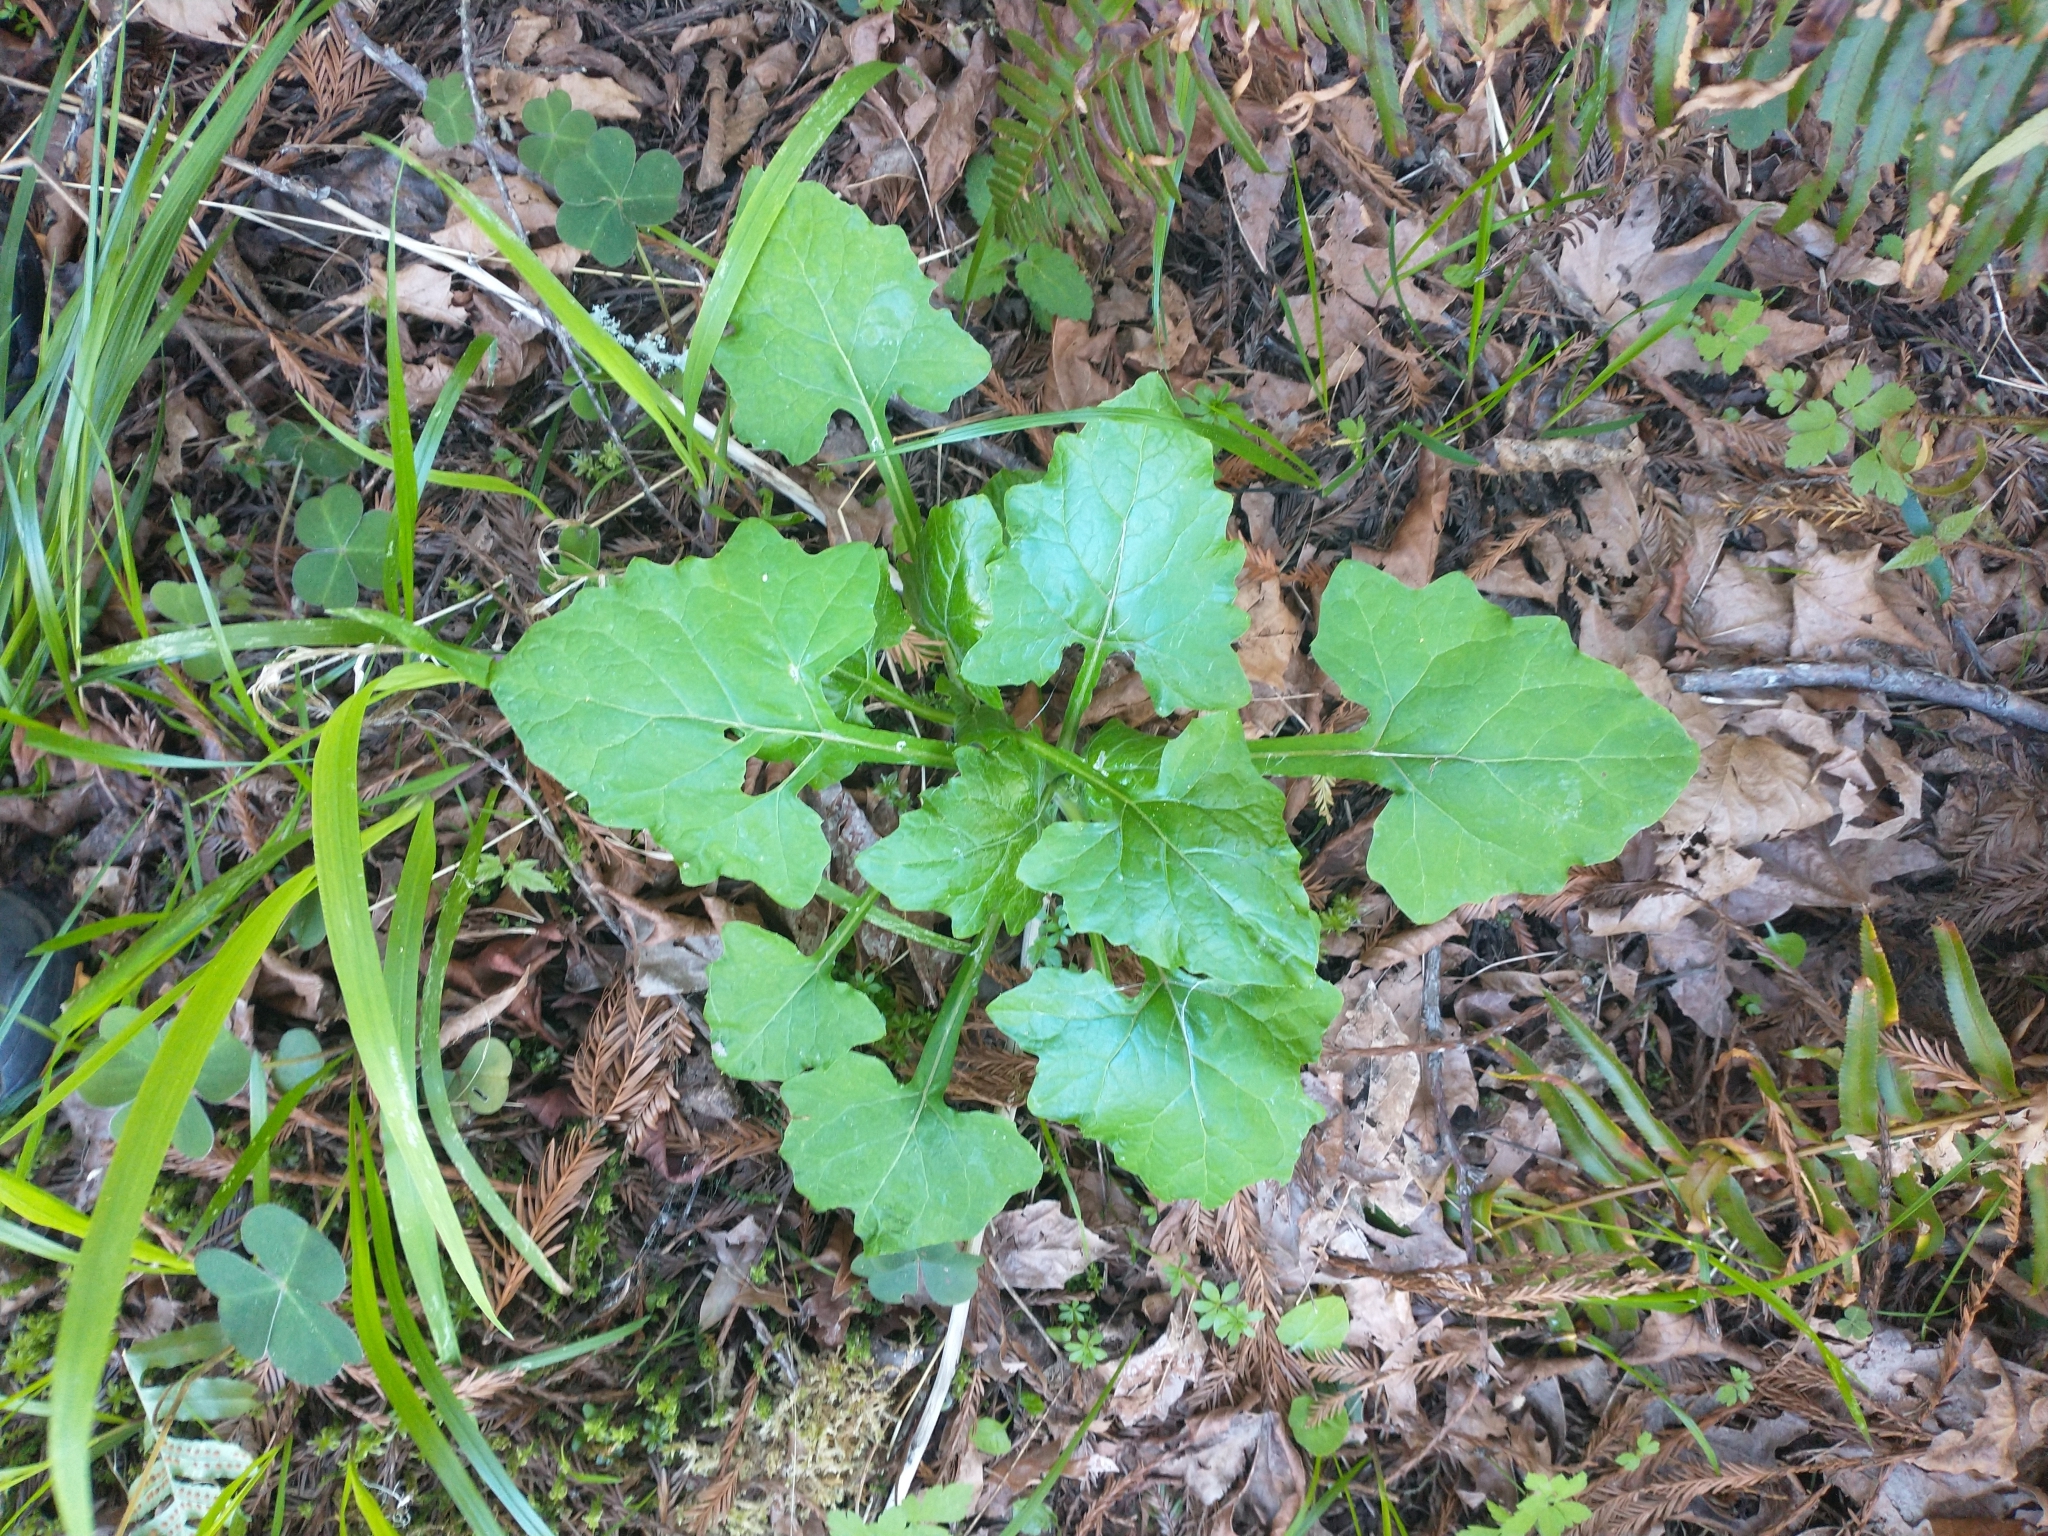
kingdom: Plantae
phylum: Tracheophyta
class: Magnoliopsida
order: Asterales
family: Asteraceae
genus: Adenocaulon
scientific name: Adenocaulon bicolor
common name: Trailplant
